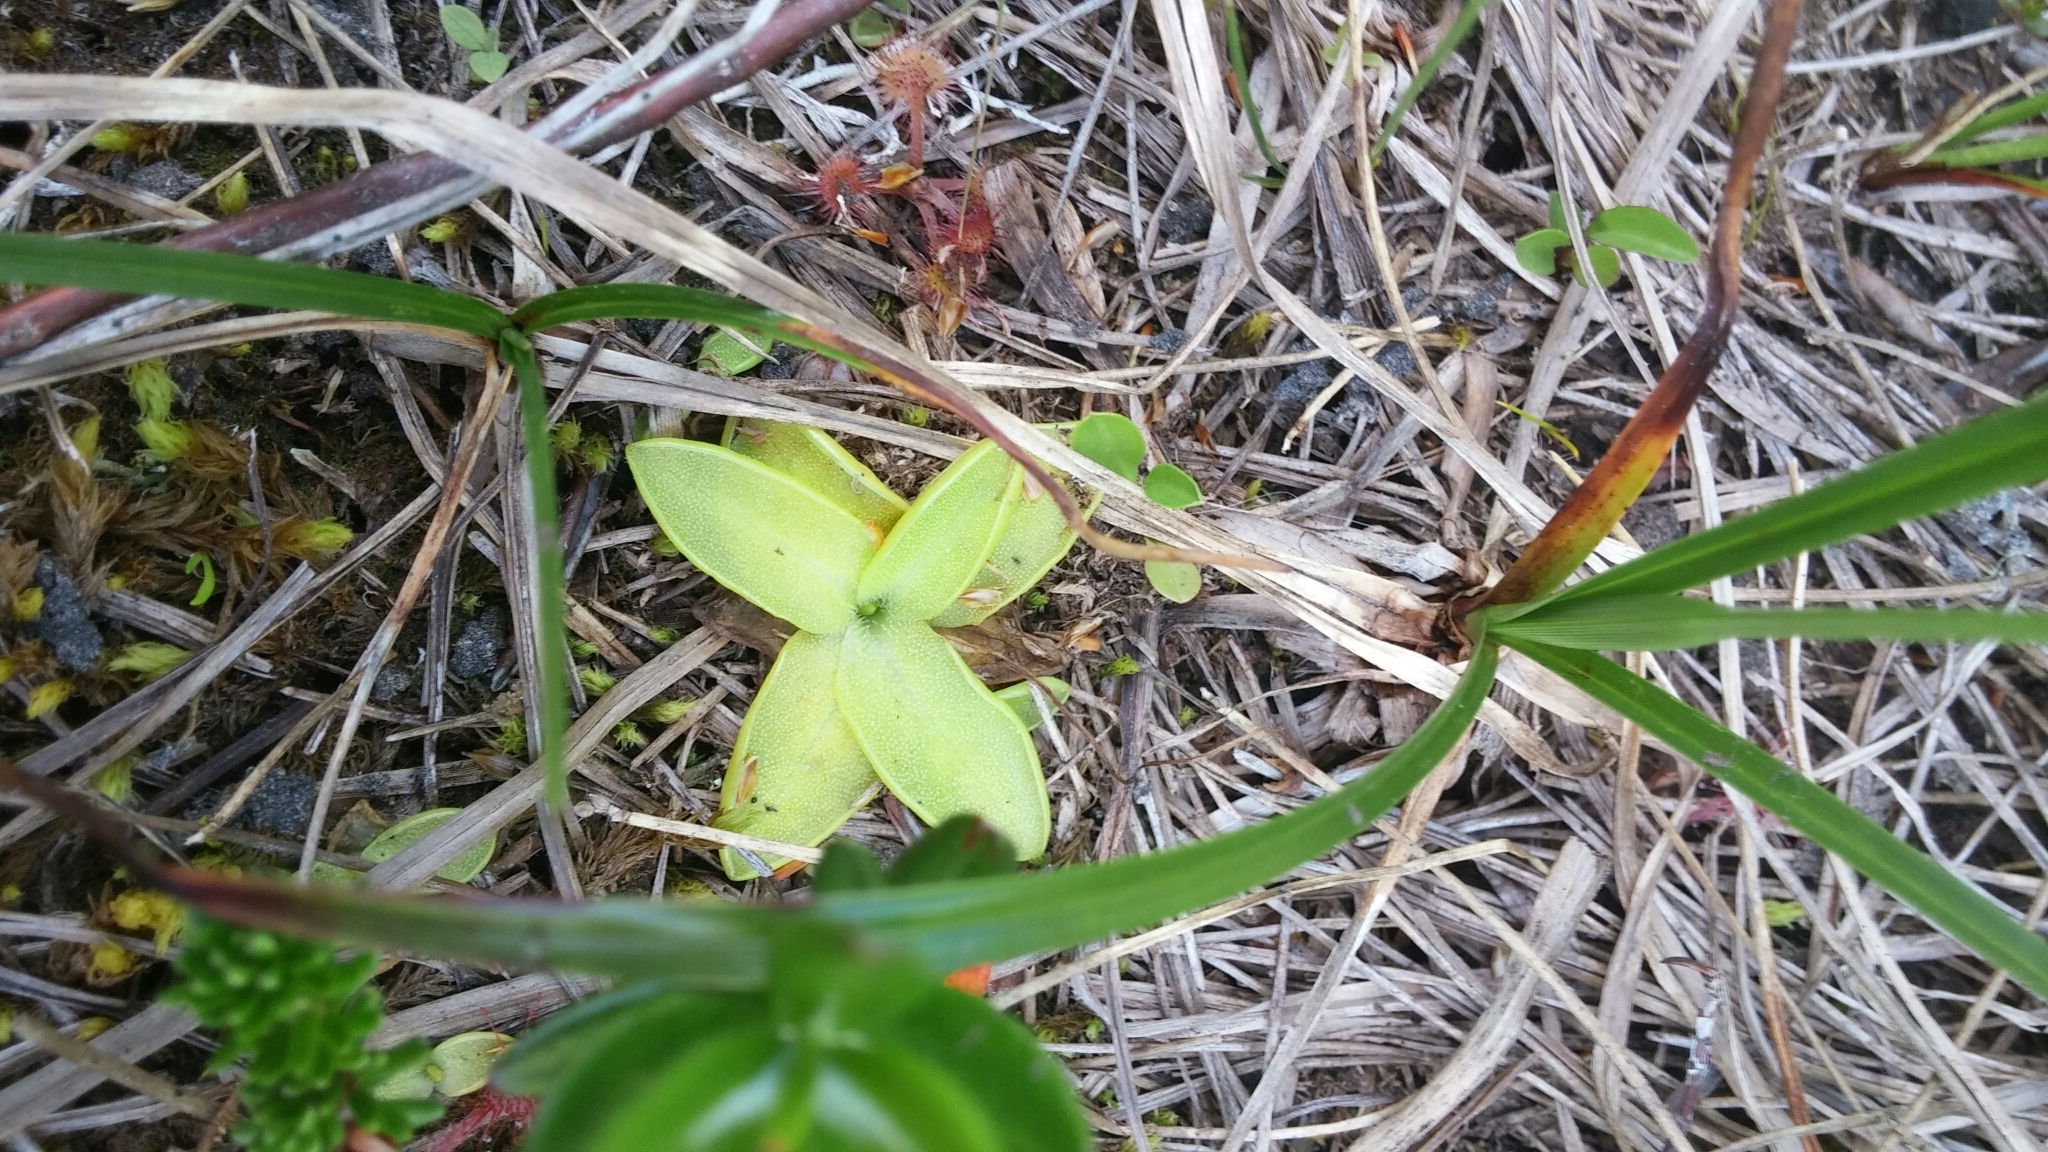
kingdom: Plantae
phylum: Tracheophyta
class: Magnoliopsida
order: Lamiales
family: Lentibulariaceae
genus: Pinguicula
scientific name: Pinguicula vulgaris
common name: Common butterwort
